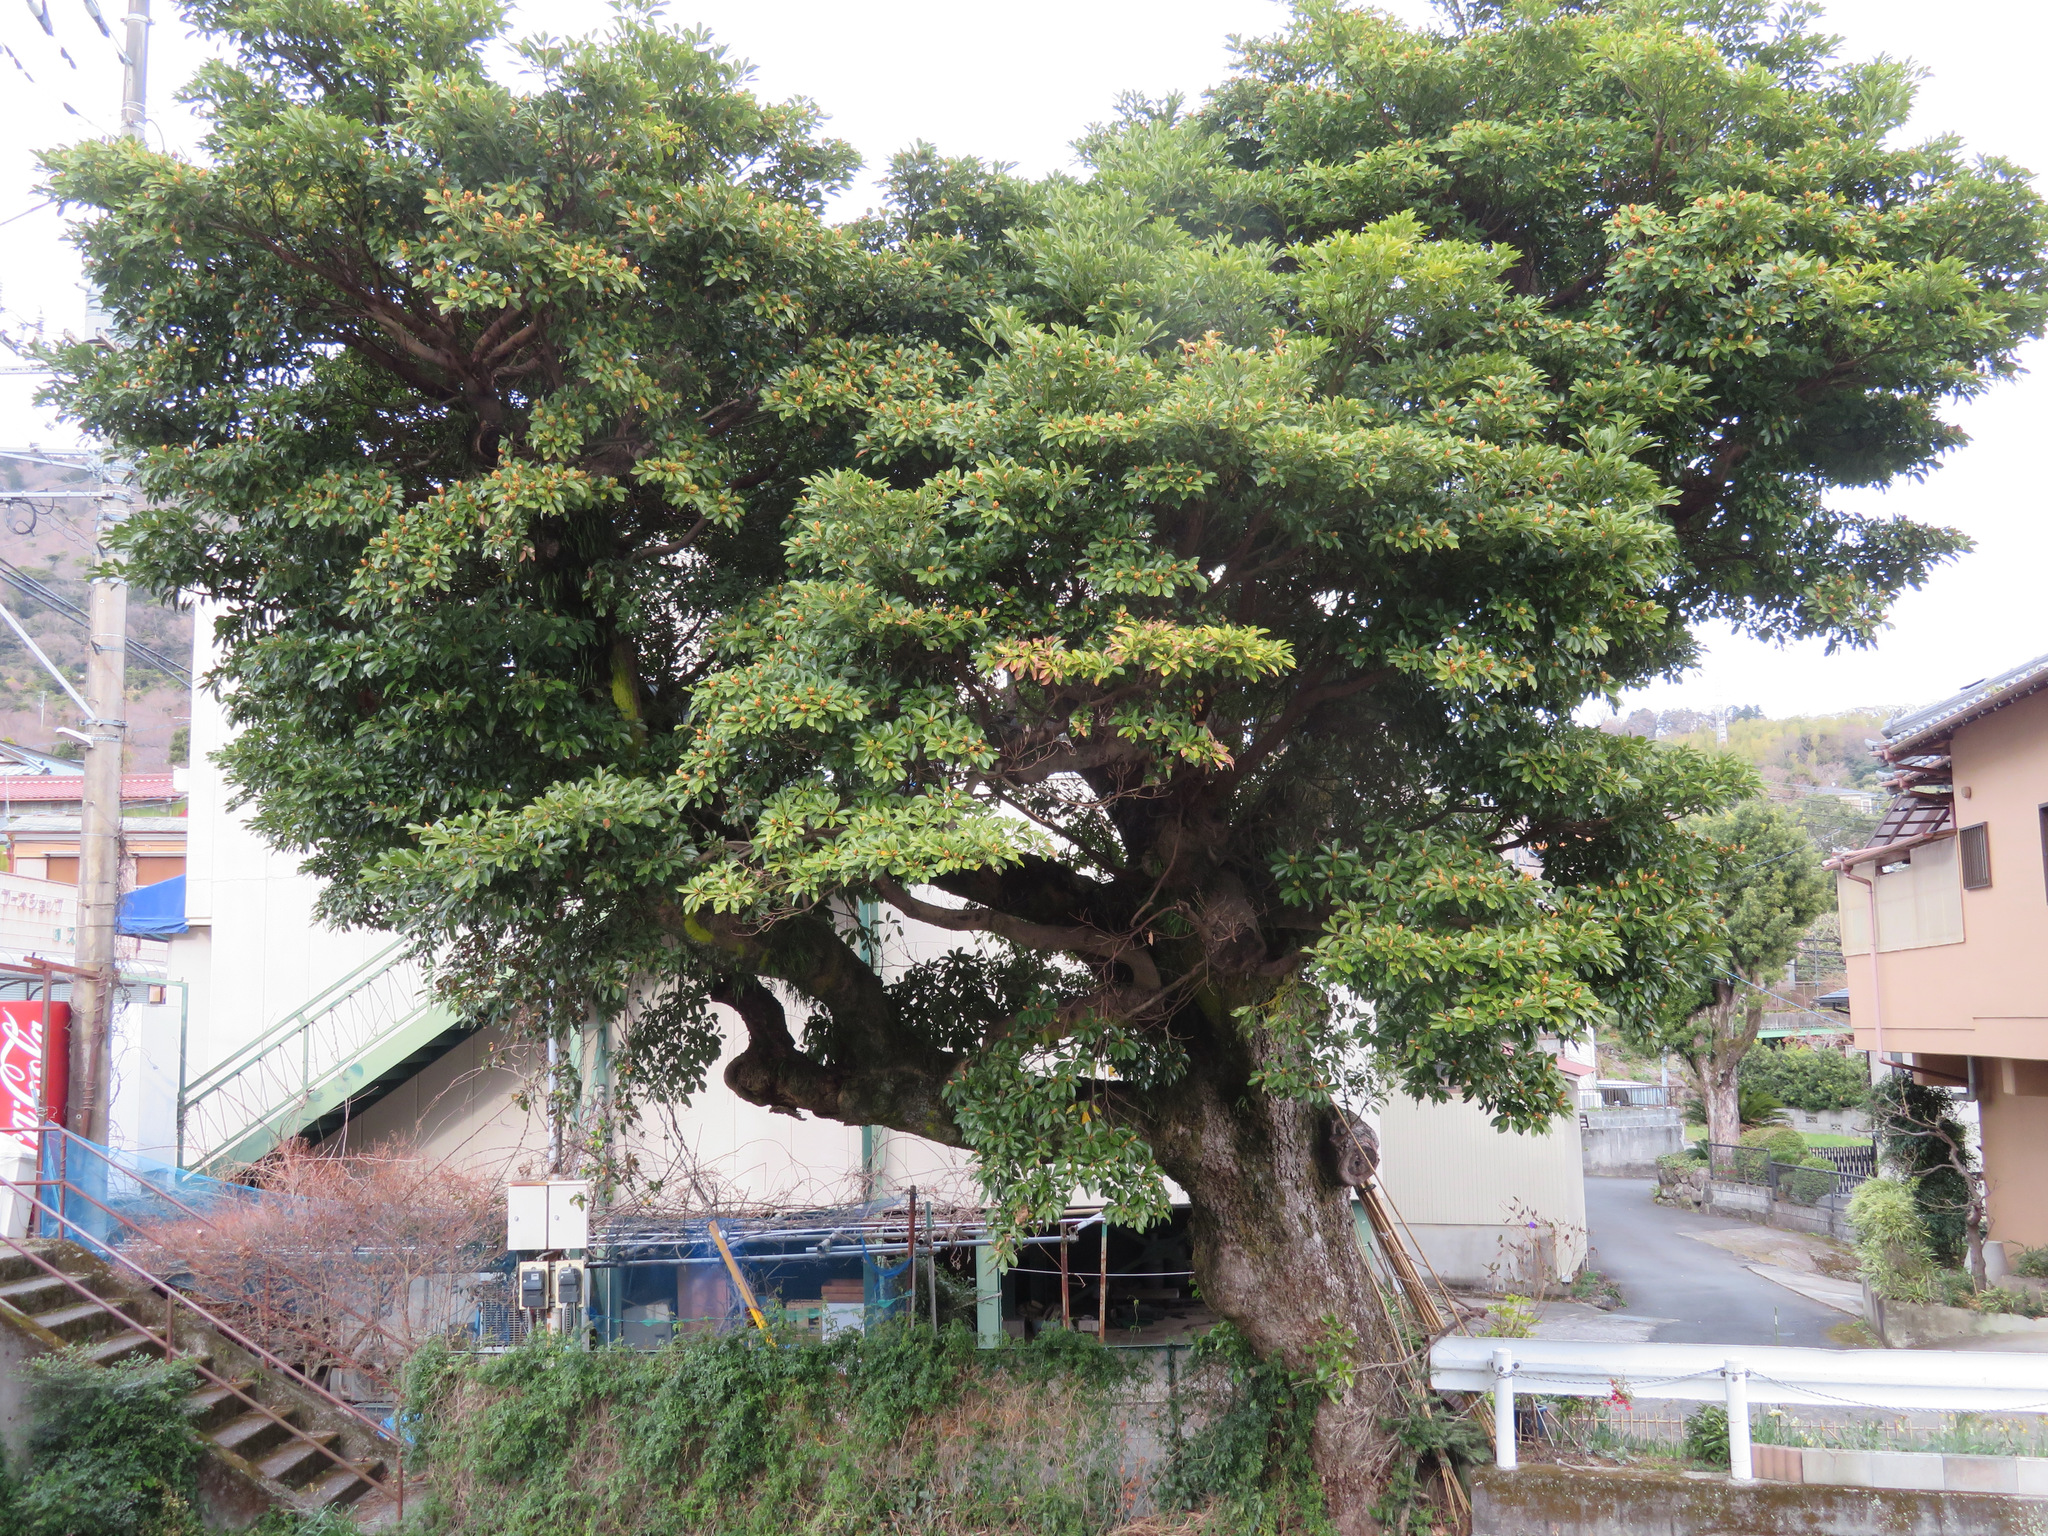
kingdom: Plantae
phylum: Tracheophyta
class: Magnoliopsida
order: Laurales
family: Lauraceae
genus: Machilus
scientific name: Machilus thunbergii
